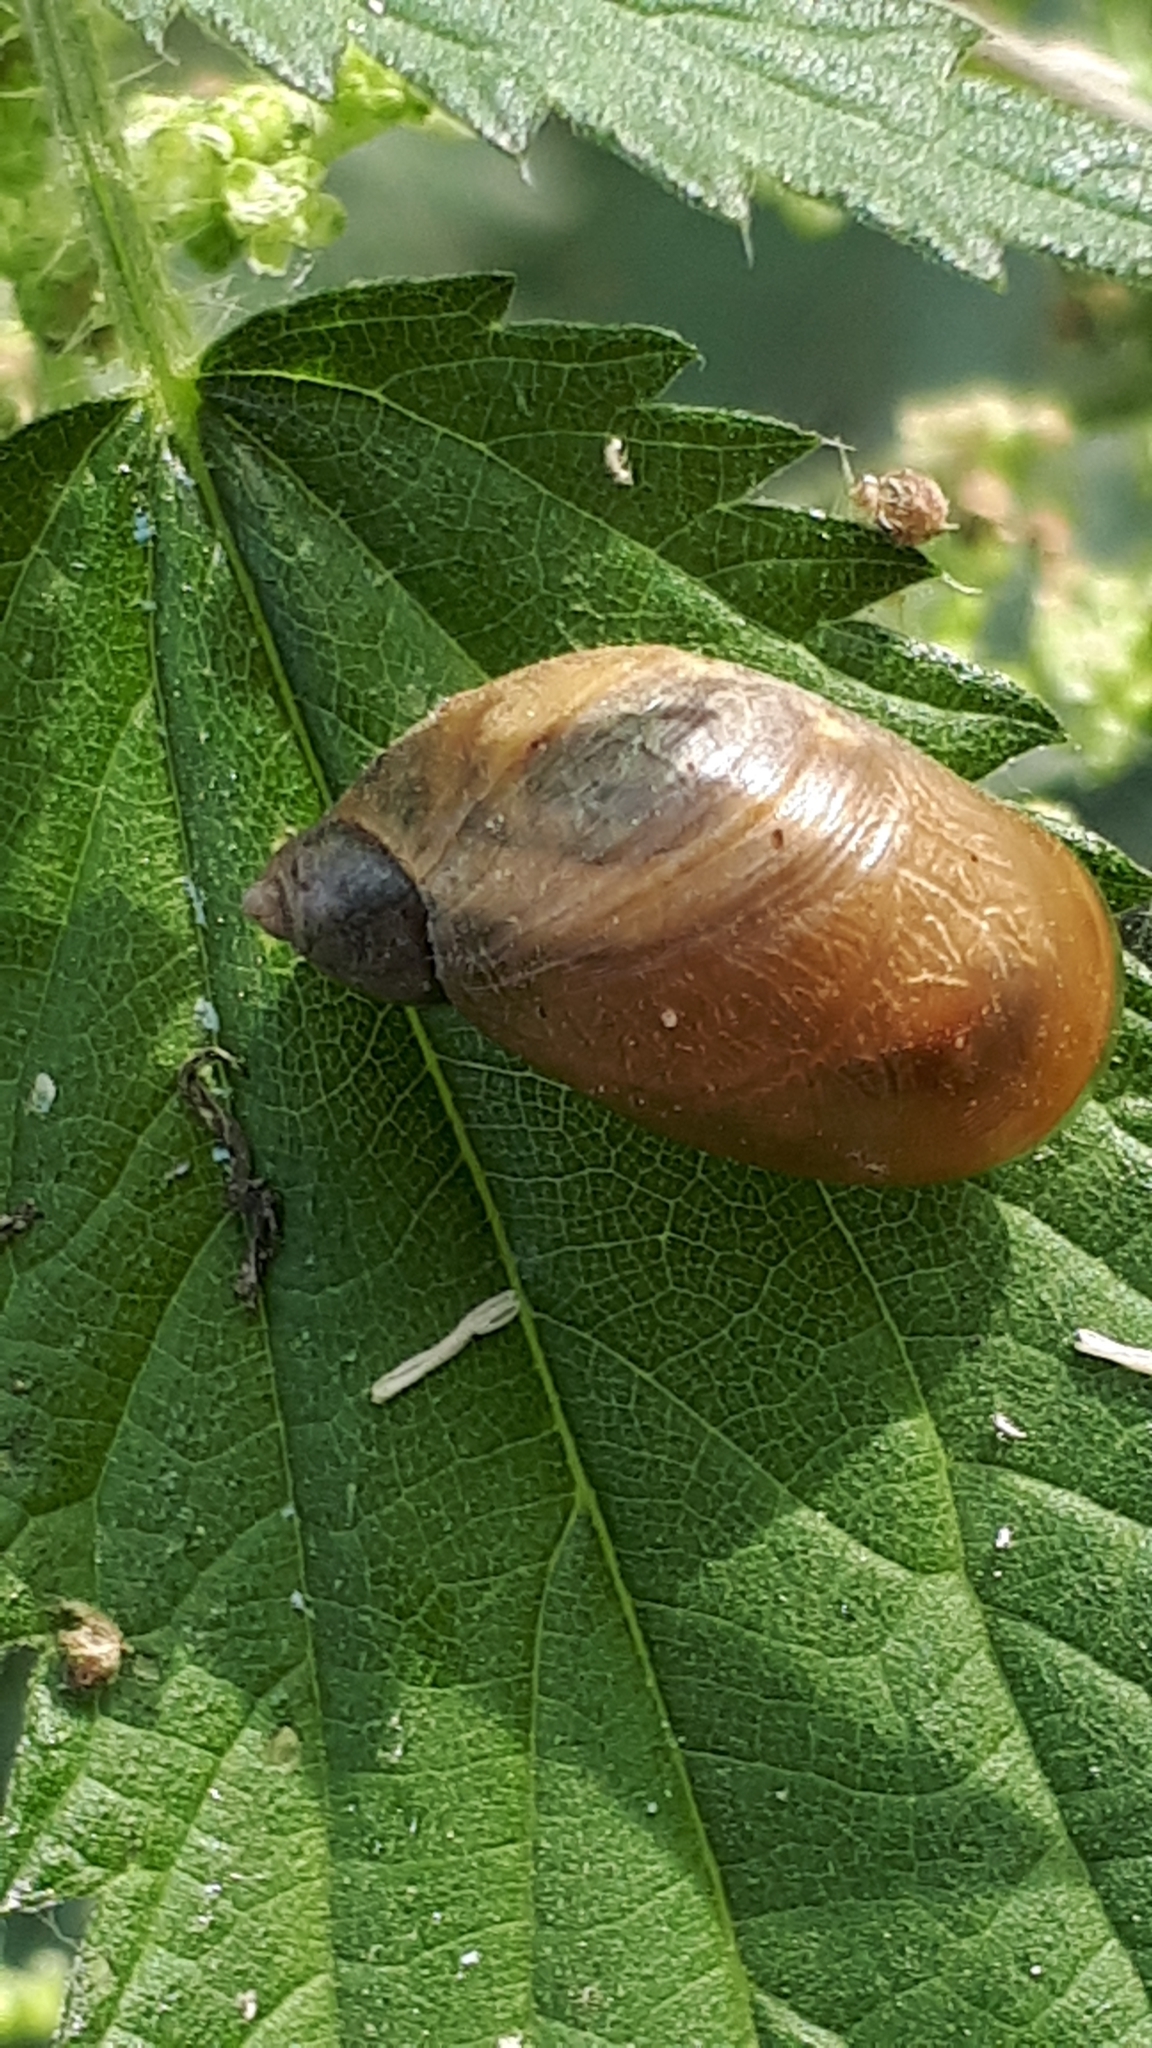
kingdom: Animalia
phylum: Mollusca
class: Gastropoda
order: Stylommatophora
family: Succineidae
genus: Succinea
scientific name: Succinea putris
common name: European ambersnail
